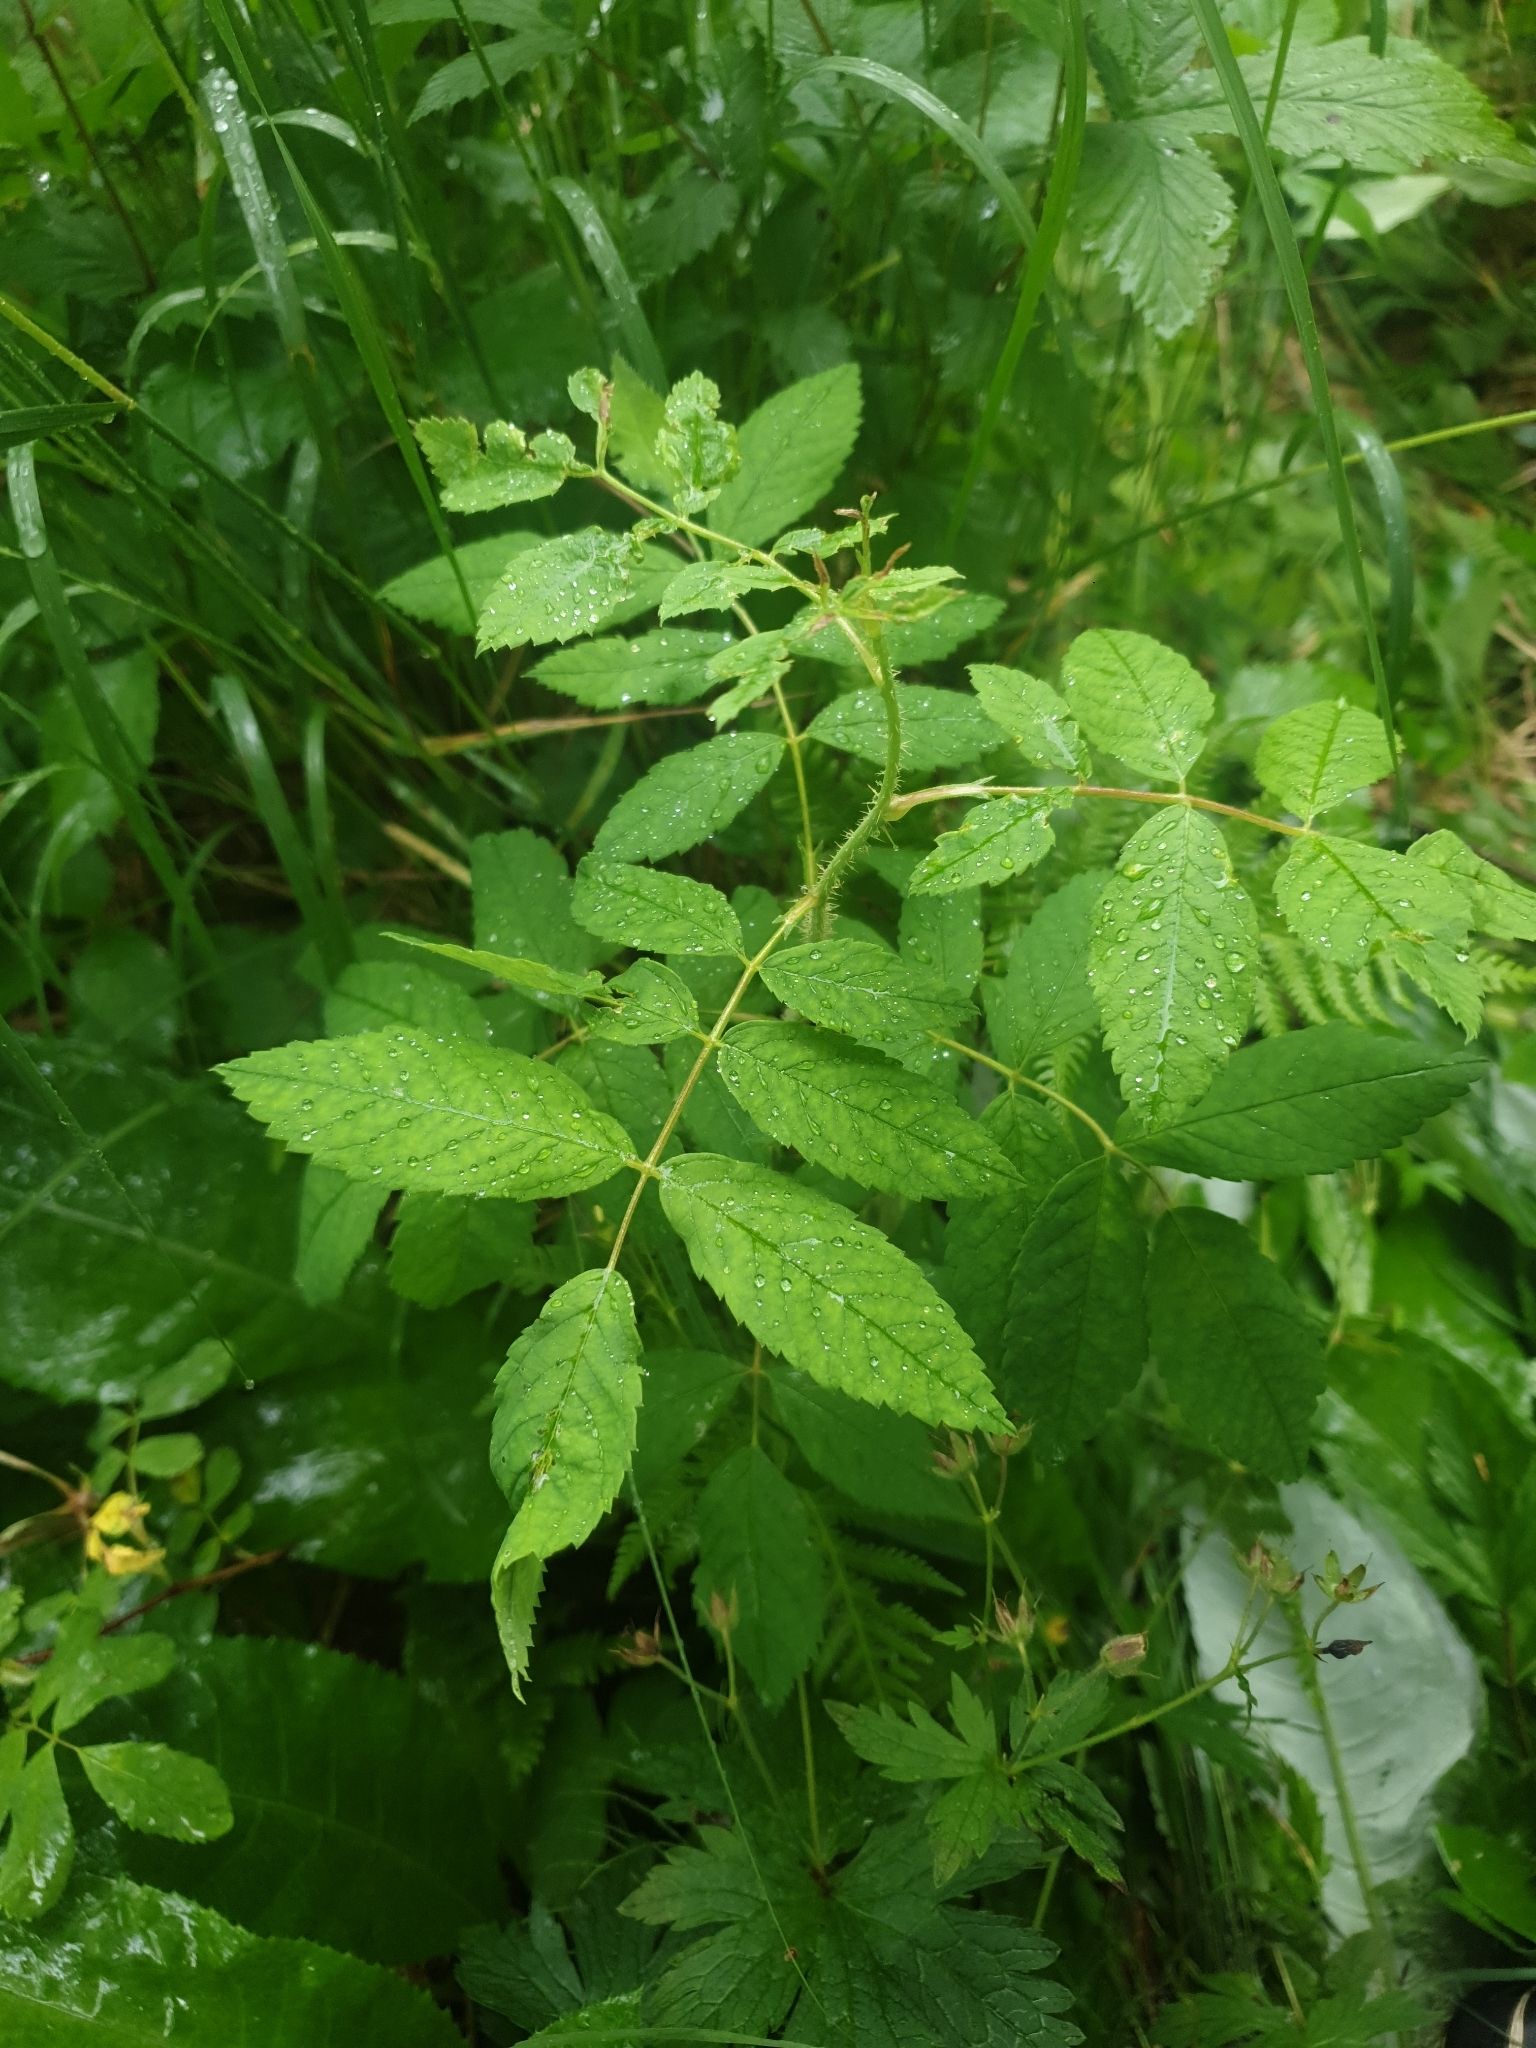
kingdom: Plantae
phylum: Tracheophyta
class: Magnoliopsida
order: Rosales
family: Rosaceae
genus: Rosa
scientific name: Rosa acicularis
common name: Prickly rose
